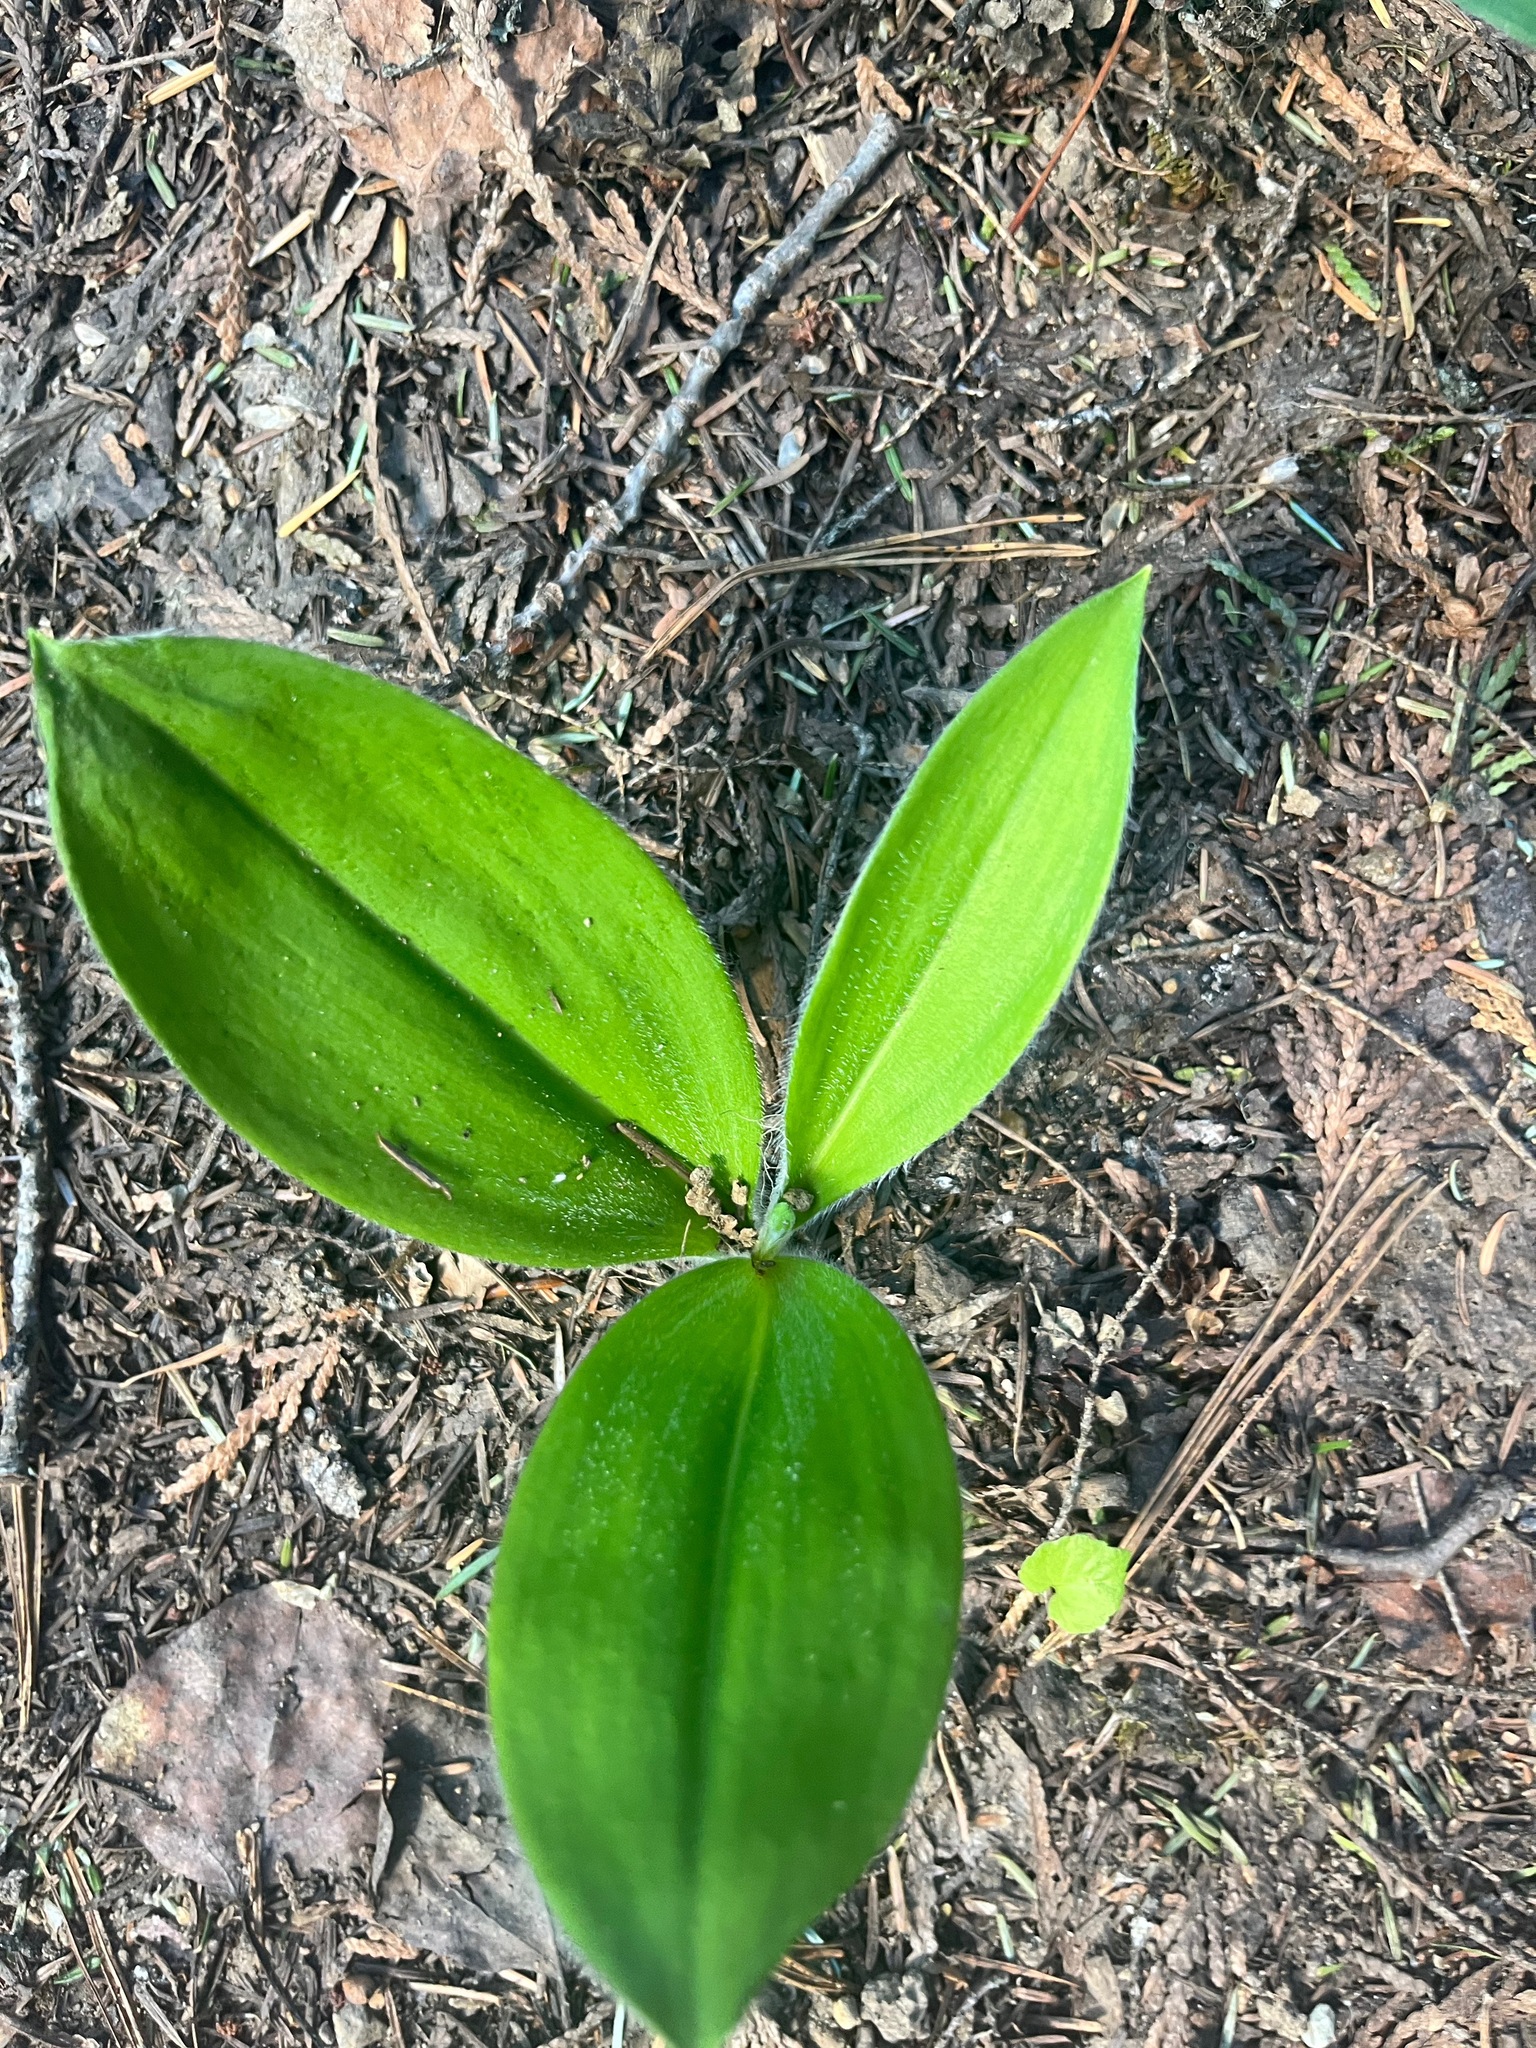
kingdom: Plantae
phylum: Tracheophyta
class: Liliopsida
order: Liliales
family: Liliaceae
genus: Clintonia
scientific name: Clintonia uniflora
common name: Queen's cup
